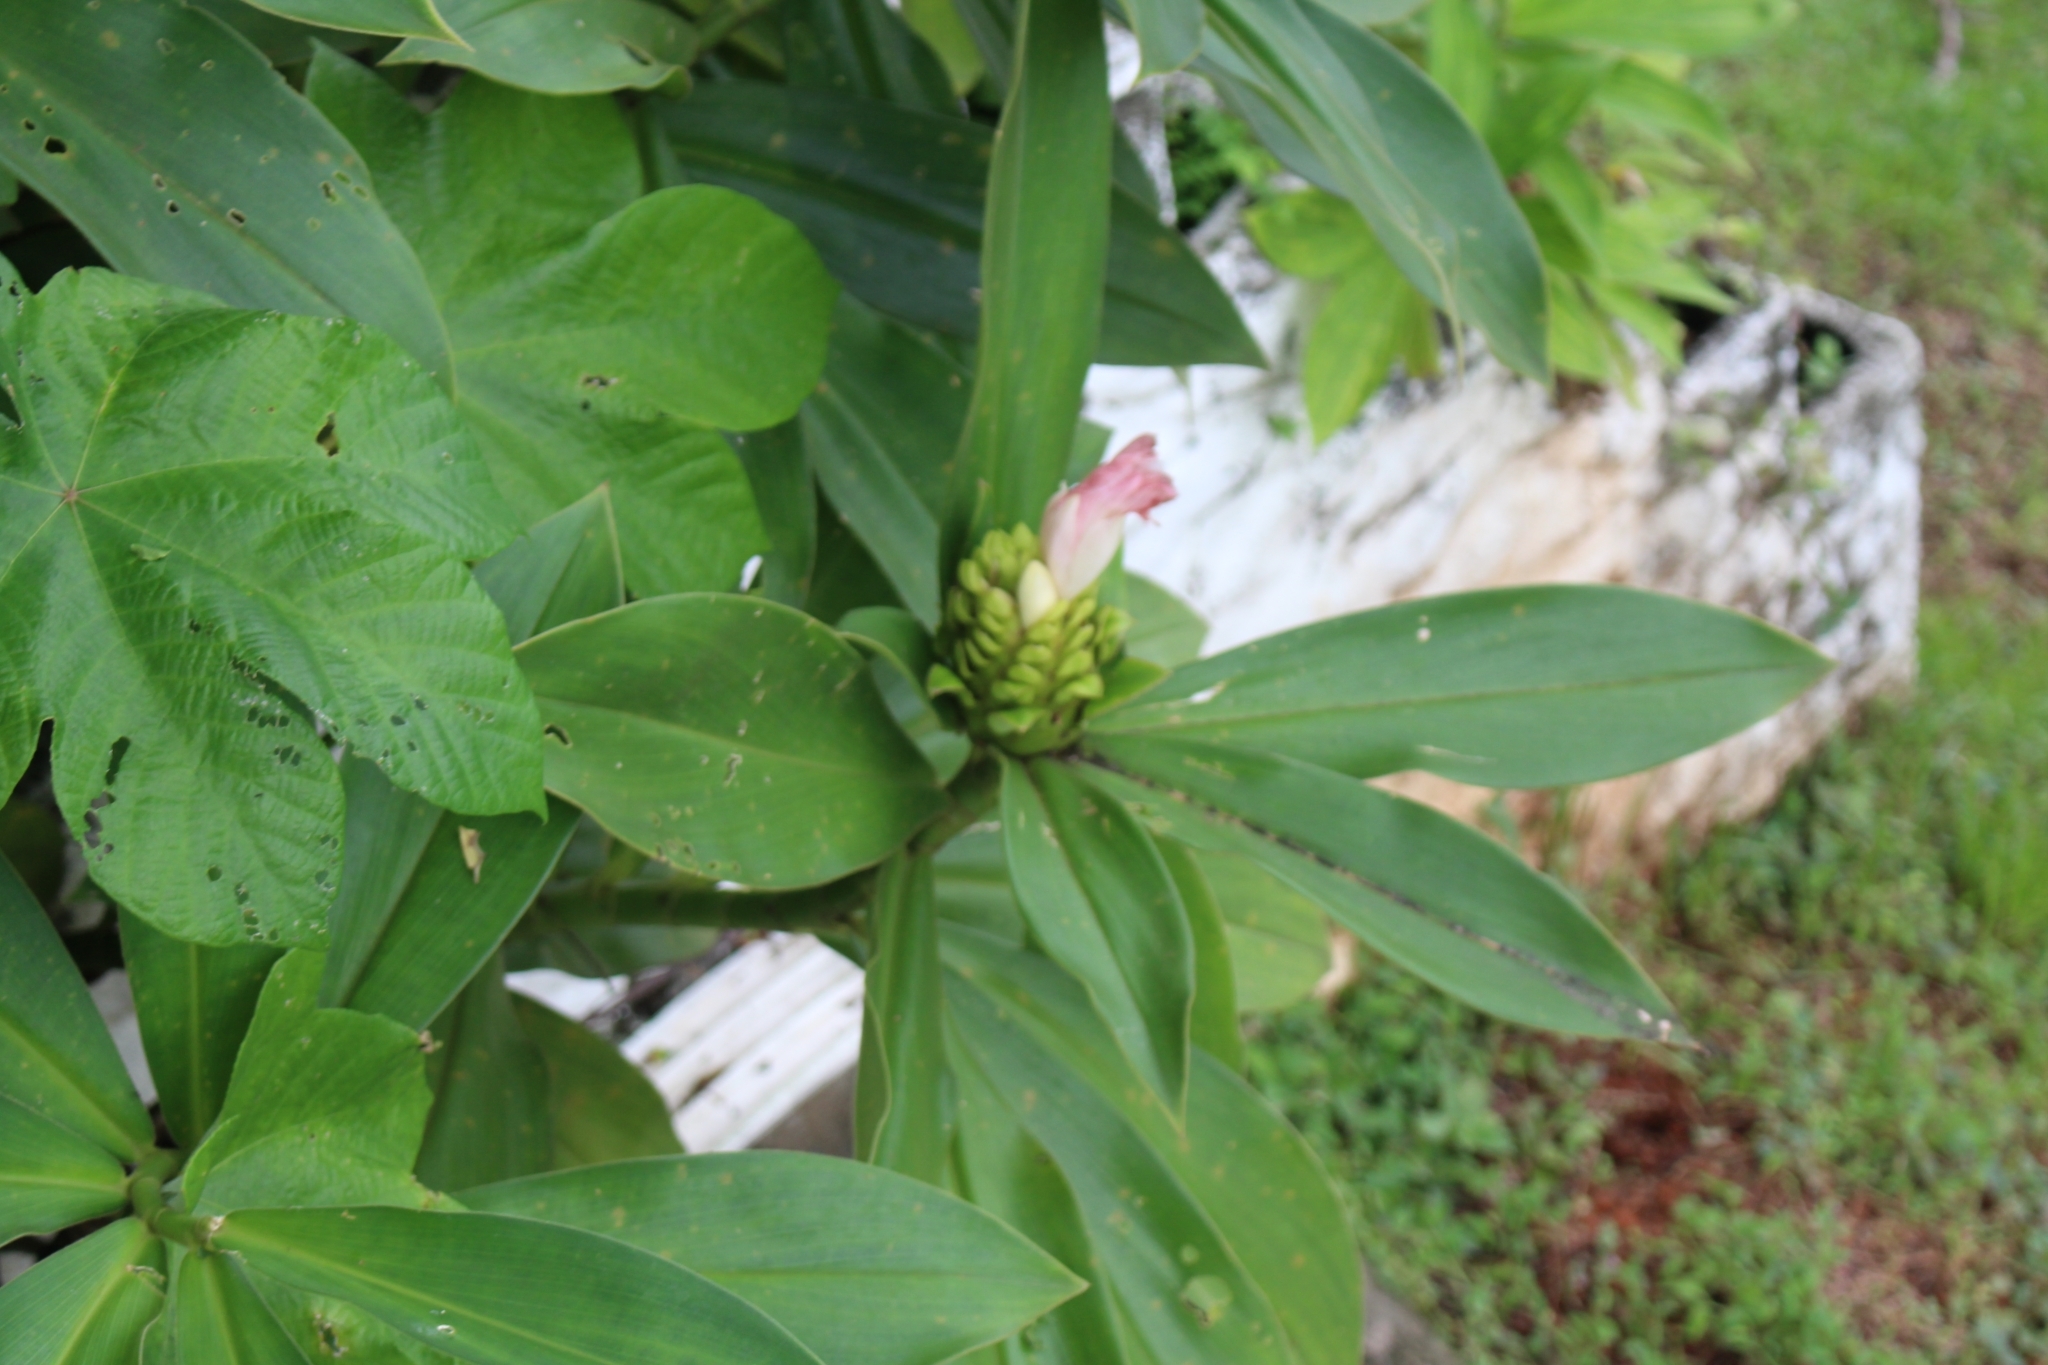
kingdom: Plantae
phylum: Tracheophyta
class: Liliopsida
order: Zingiberales
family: Costaceae
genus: Costus
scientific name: Costus guanaiensis
